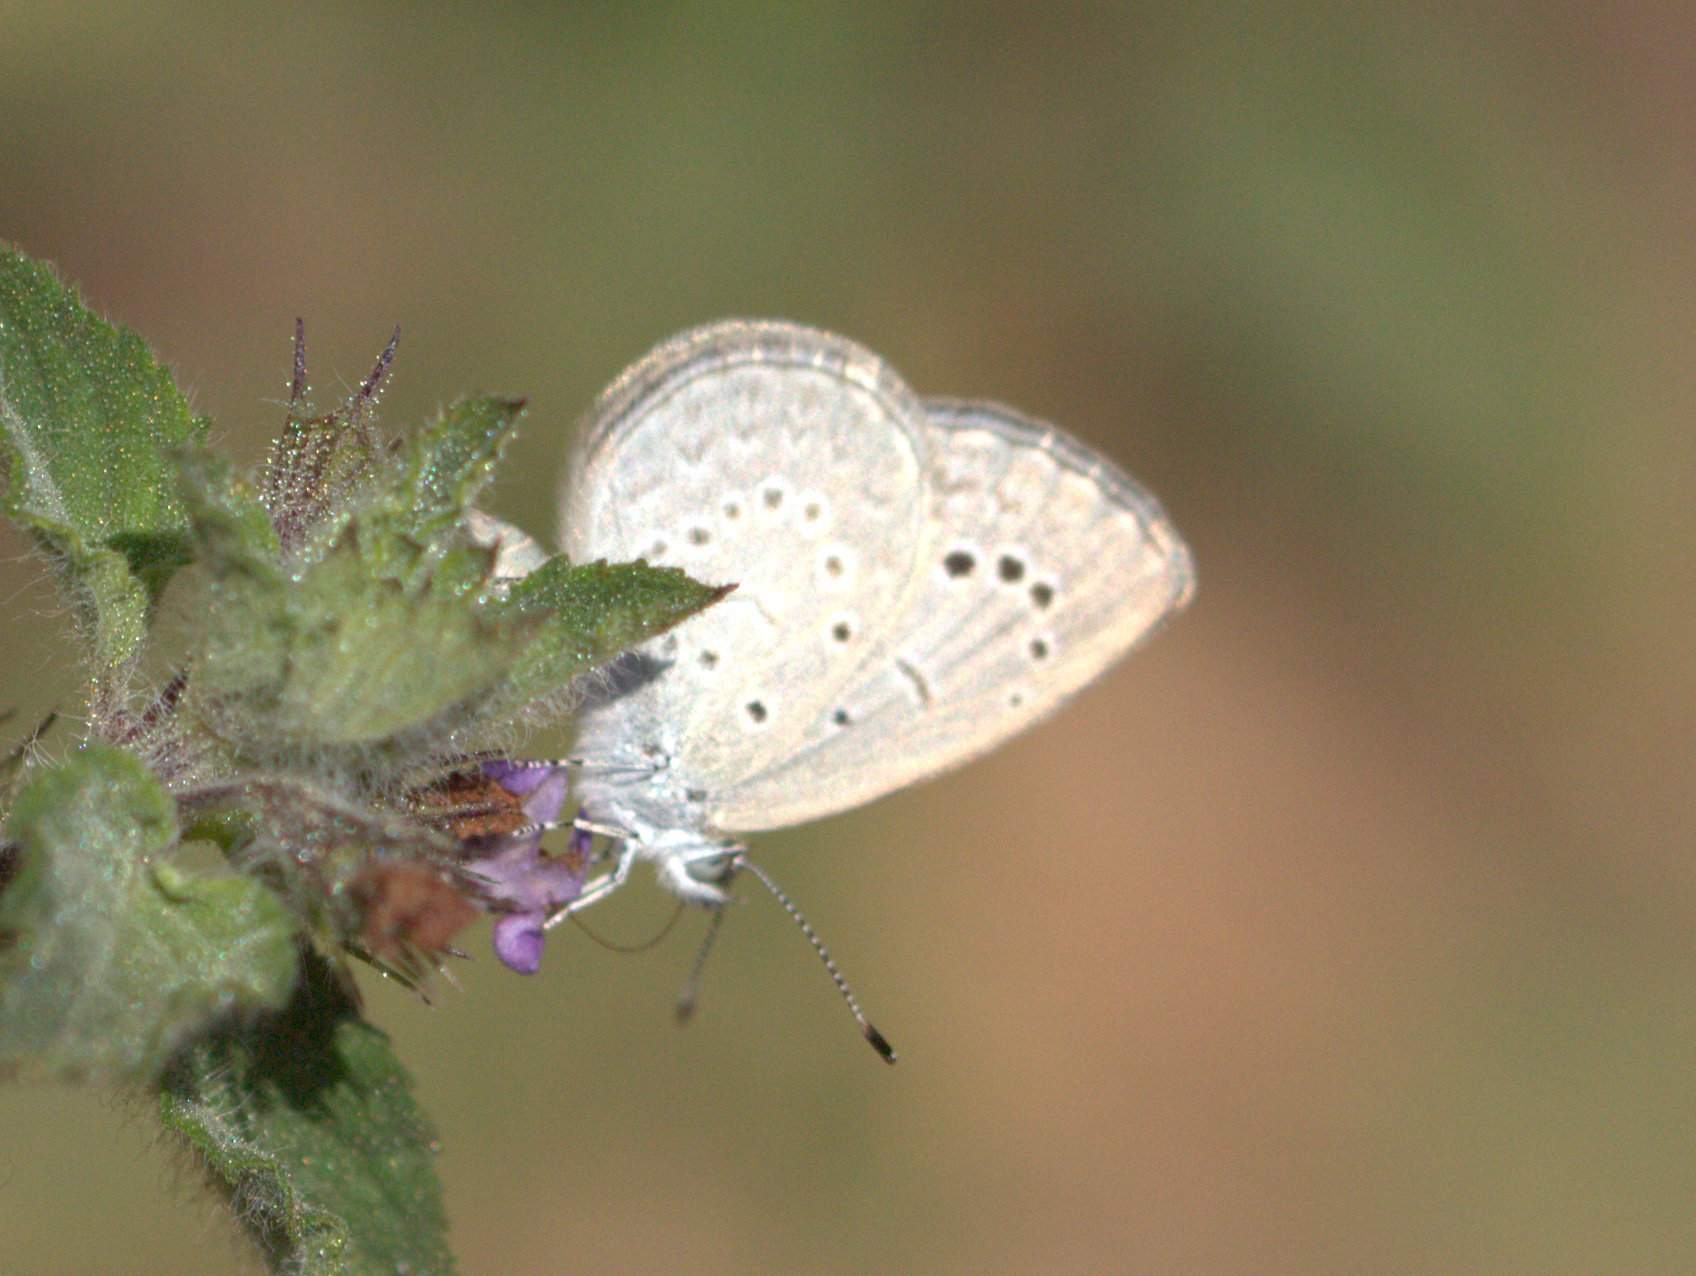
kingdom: Animalia
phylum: Arthropoda
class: Insecta
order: Lepidoptera
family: Lycaenidae
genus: Pseudozizeeria
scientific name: Pseudozizeeria maha
